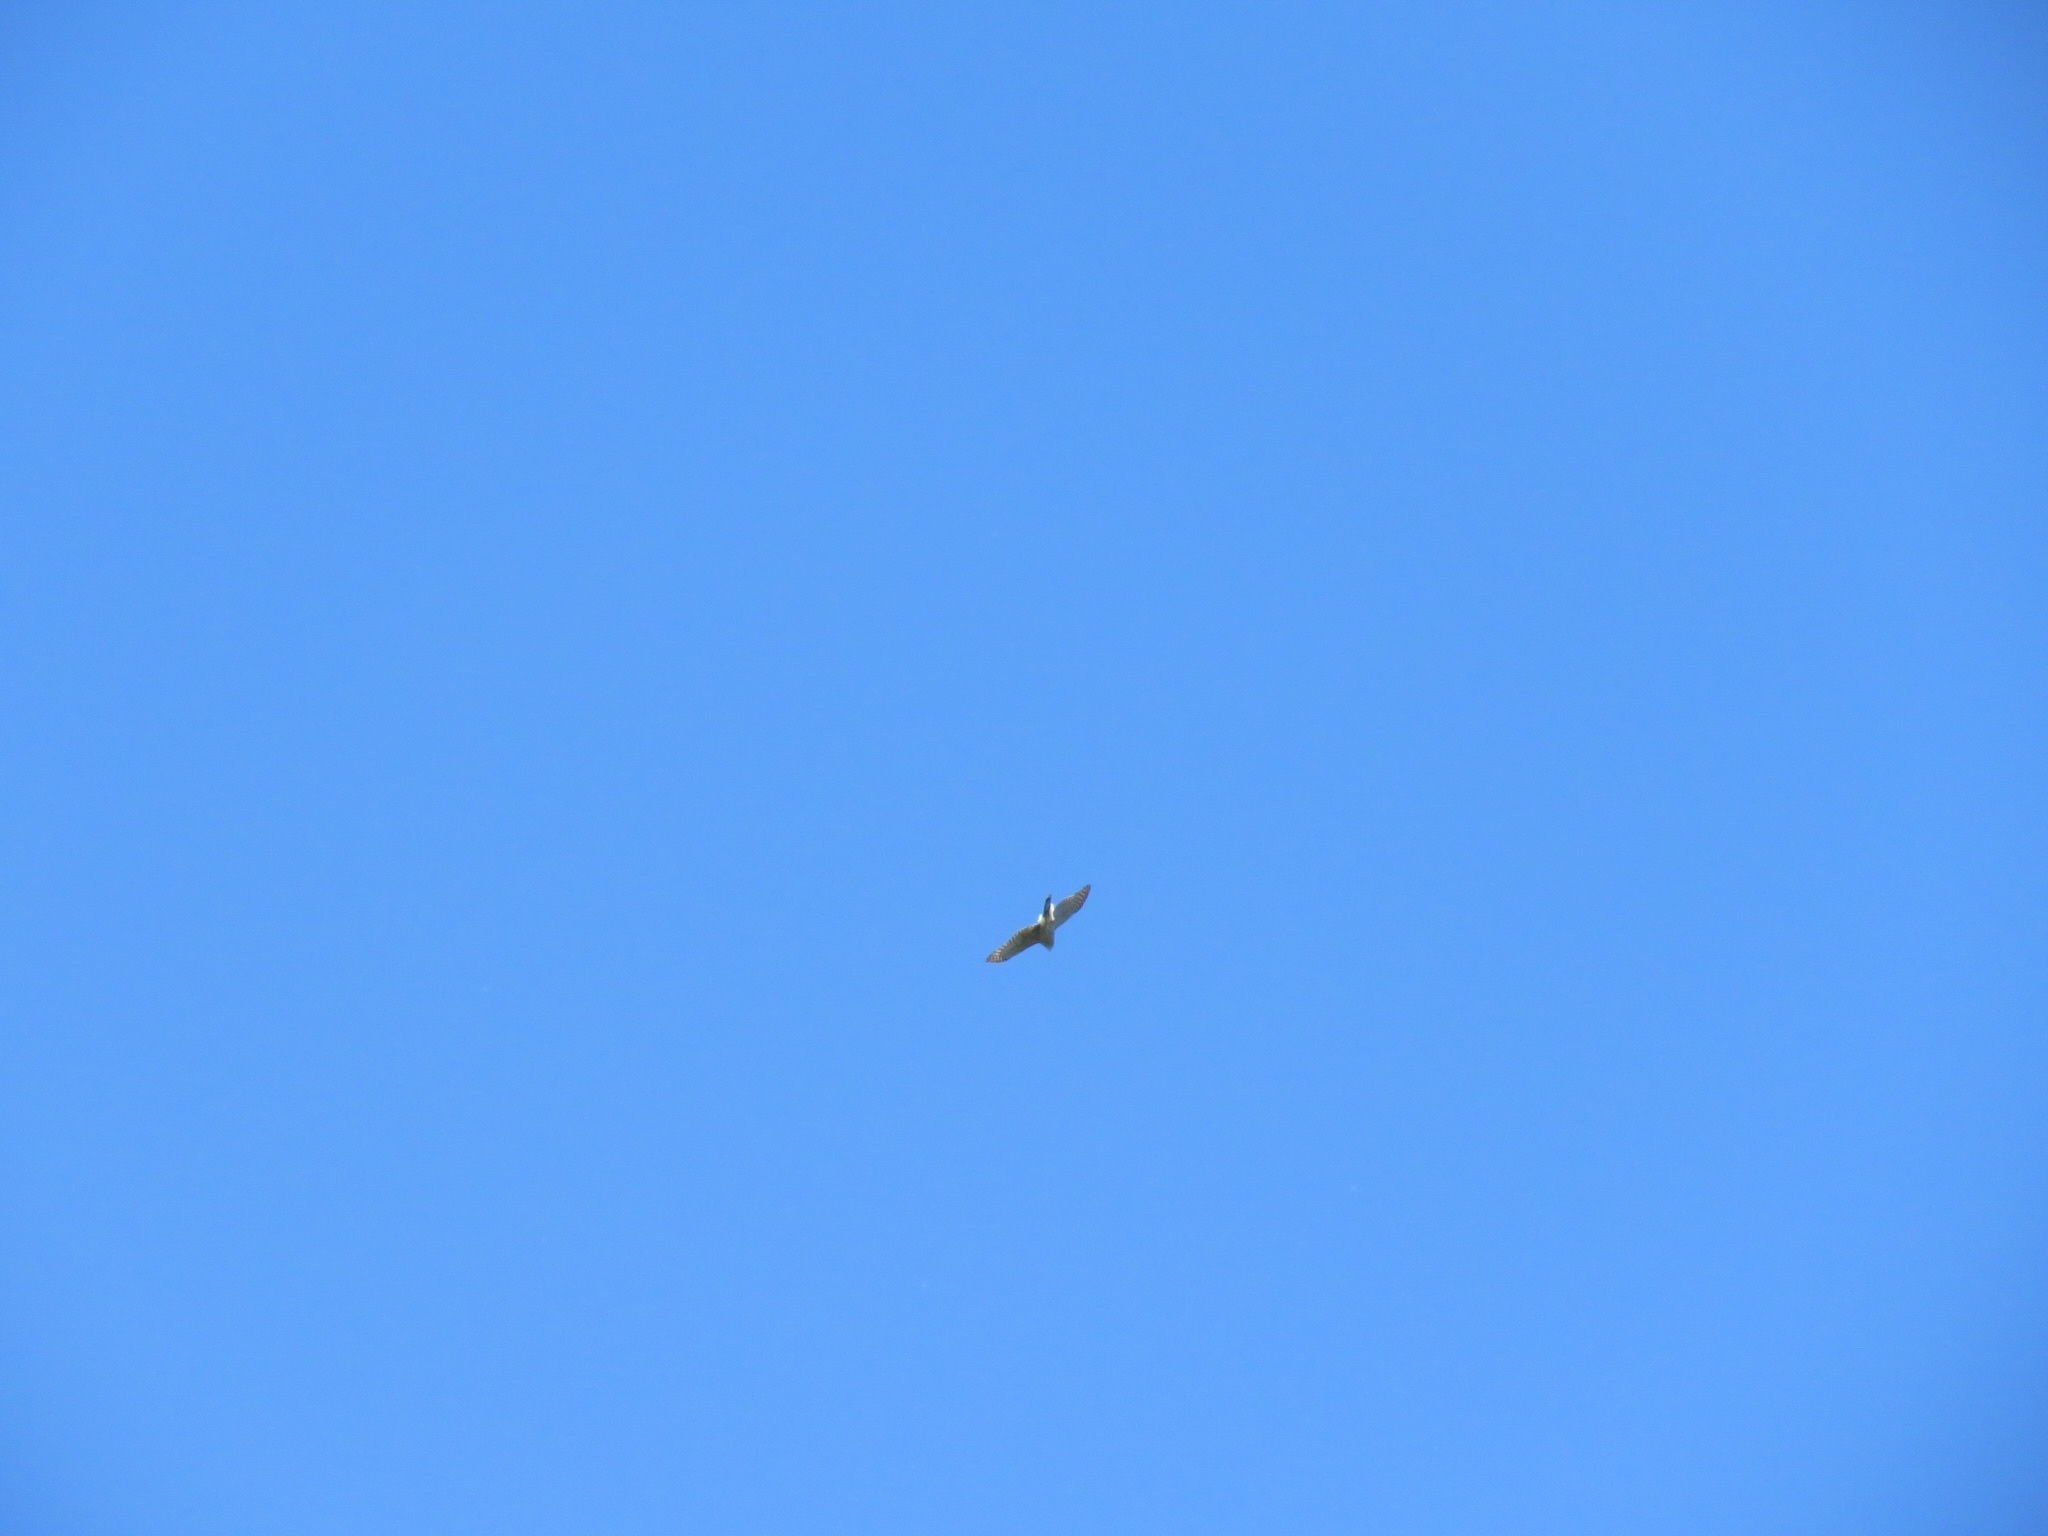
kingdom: Animalia
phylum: Chordata
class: Aves
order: Accipitriformes
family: Accipitridae
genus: Accipiter
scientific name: Accipiter cooperii
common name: Cooper's hawk
